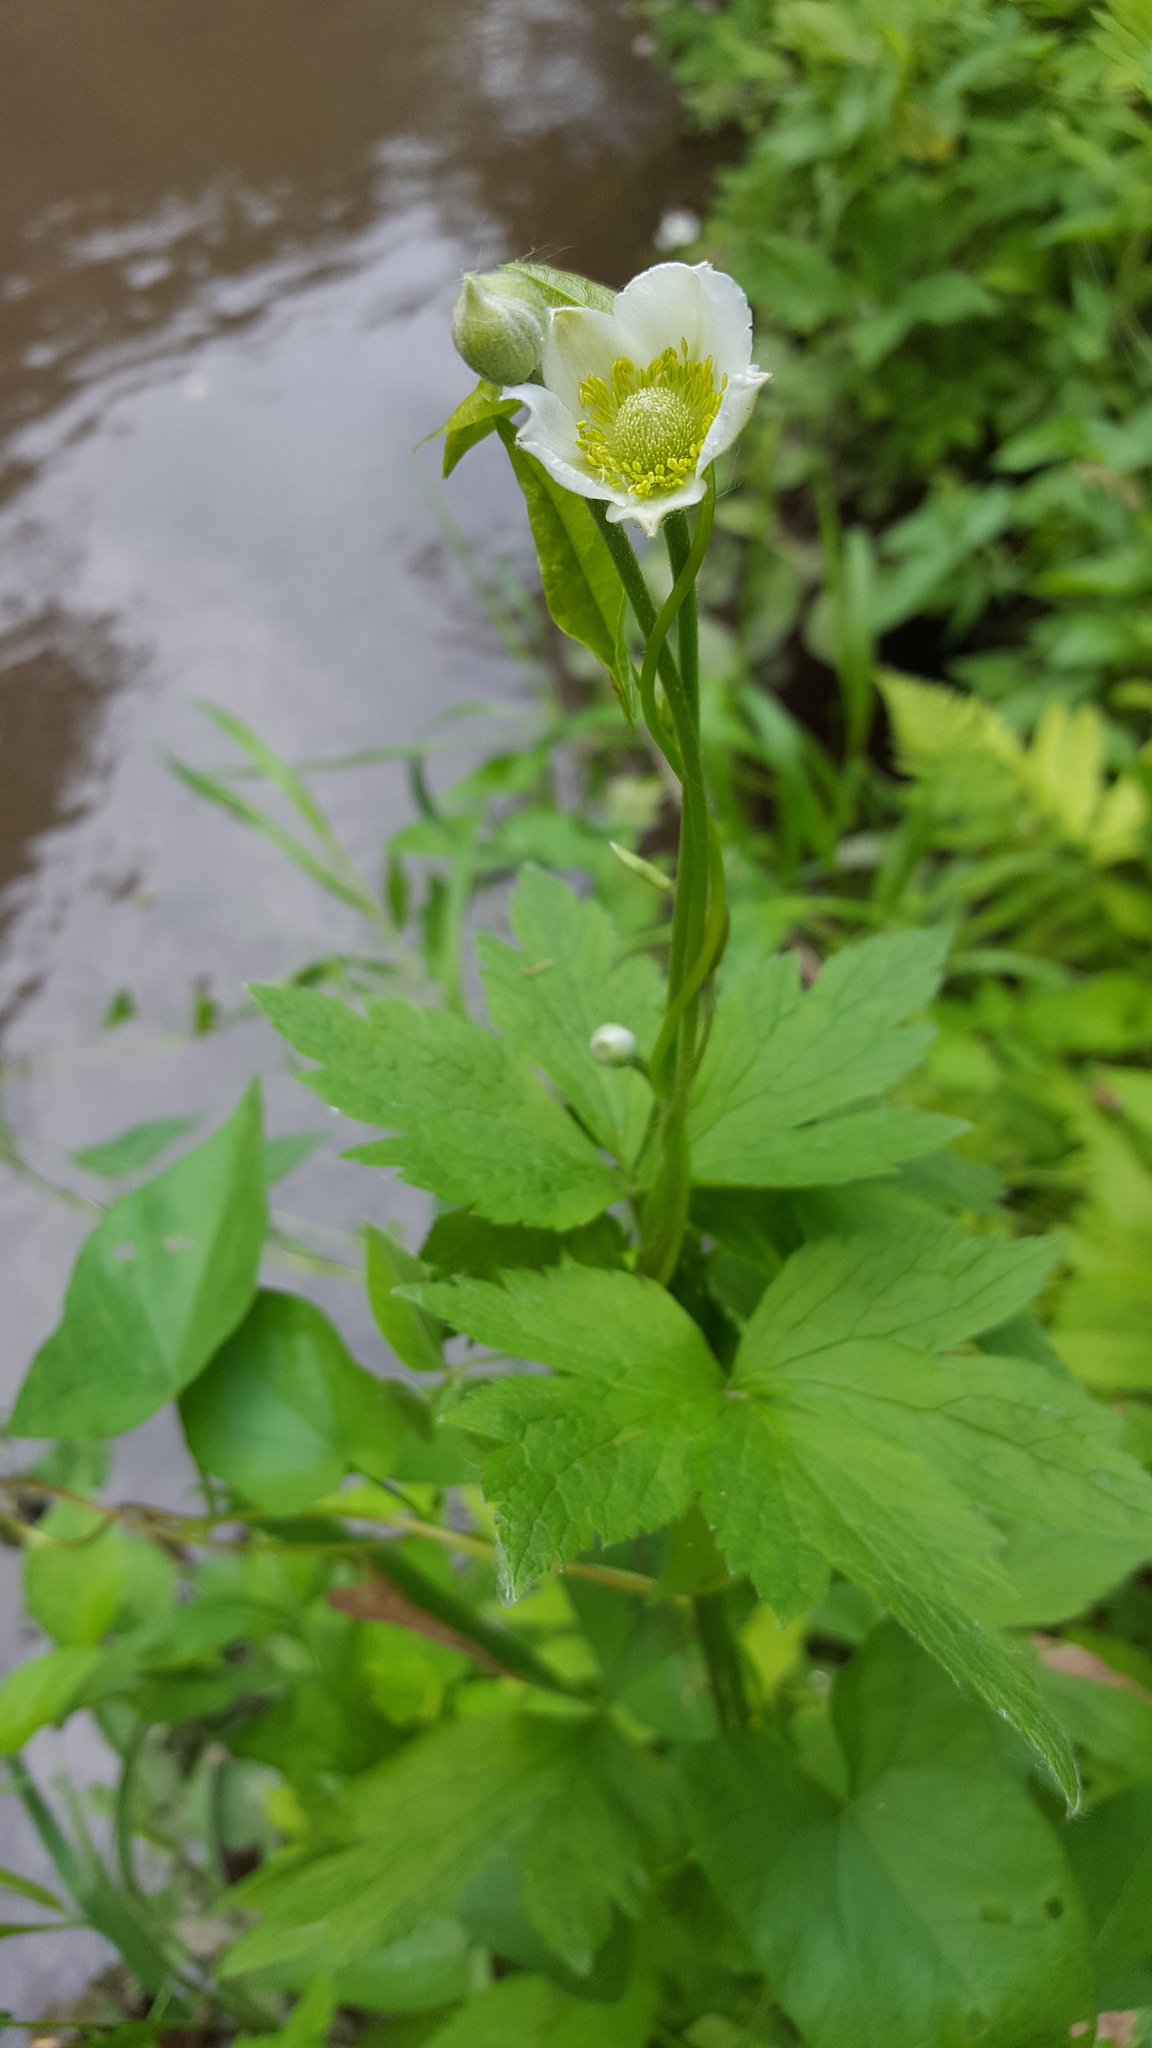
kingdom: Plantae
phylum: Tracheophyta
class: Magnoliopsida
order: Ranunculales
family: Ranunculaceae
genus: Anemone
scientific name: Anemone virginiana
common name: Tall anemone
